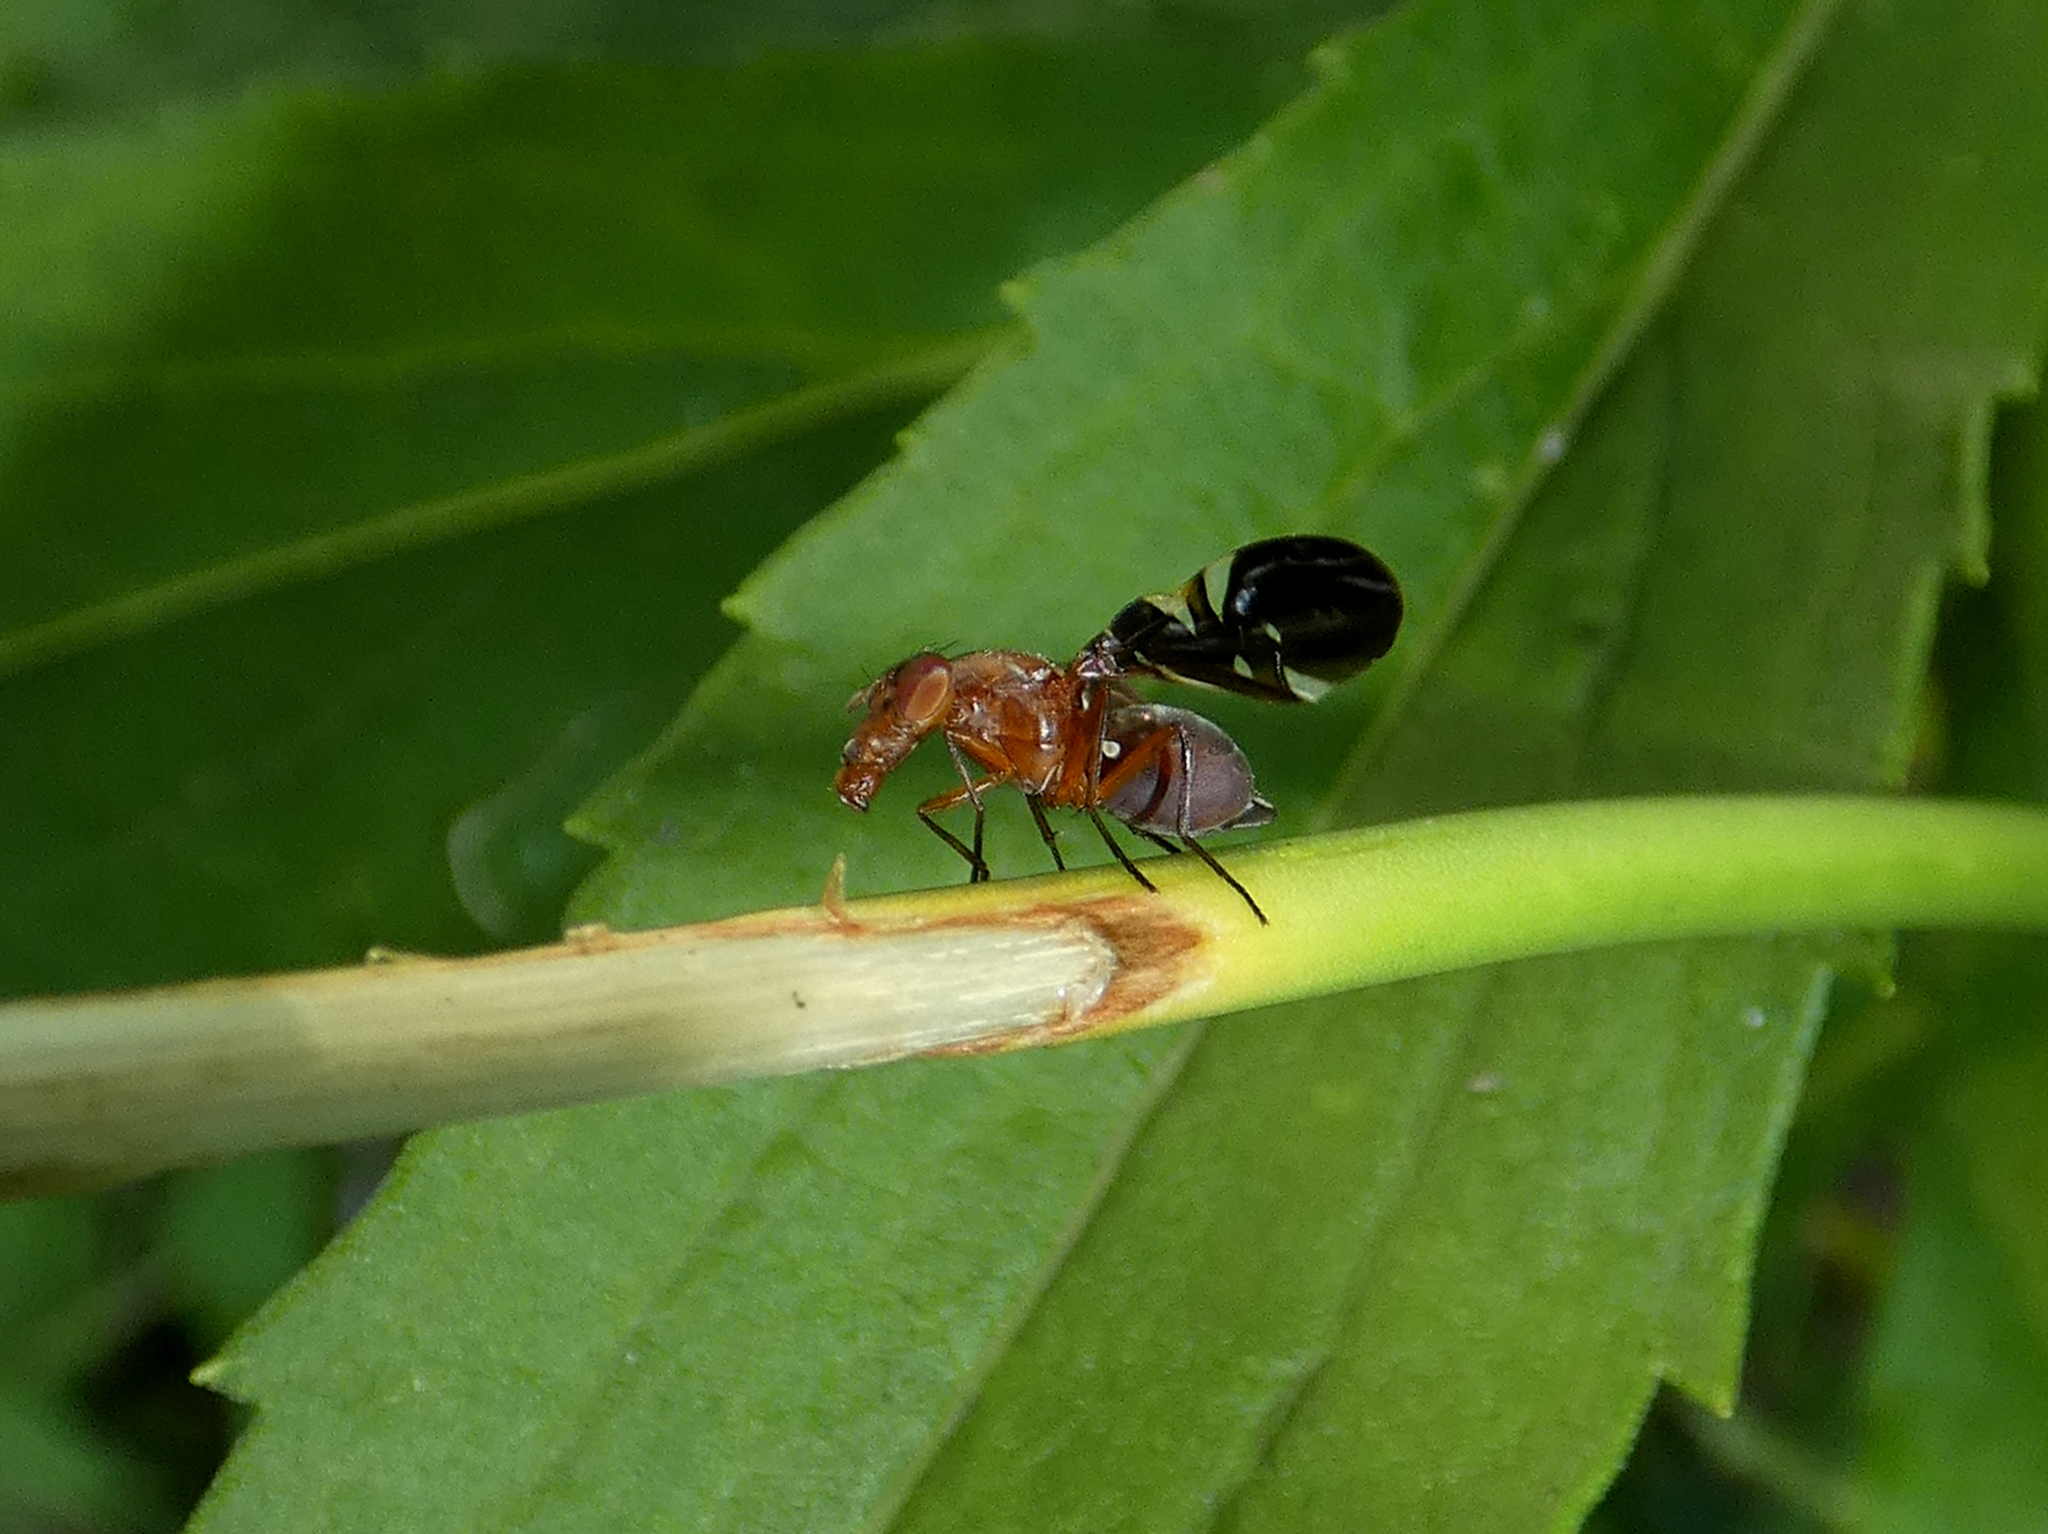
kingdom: Animalia
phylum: Arthropoda
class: Insecta
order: Diptera
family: Ulidiidae
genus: Delphinia
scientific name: Delphinia picta
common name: Common picture-winged fly
